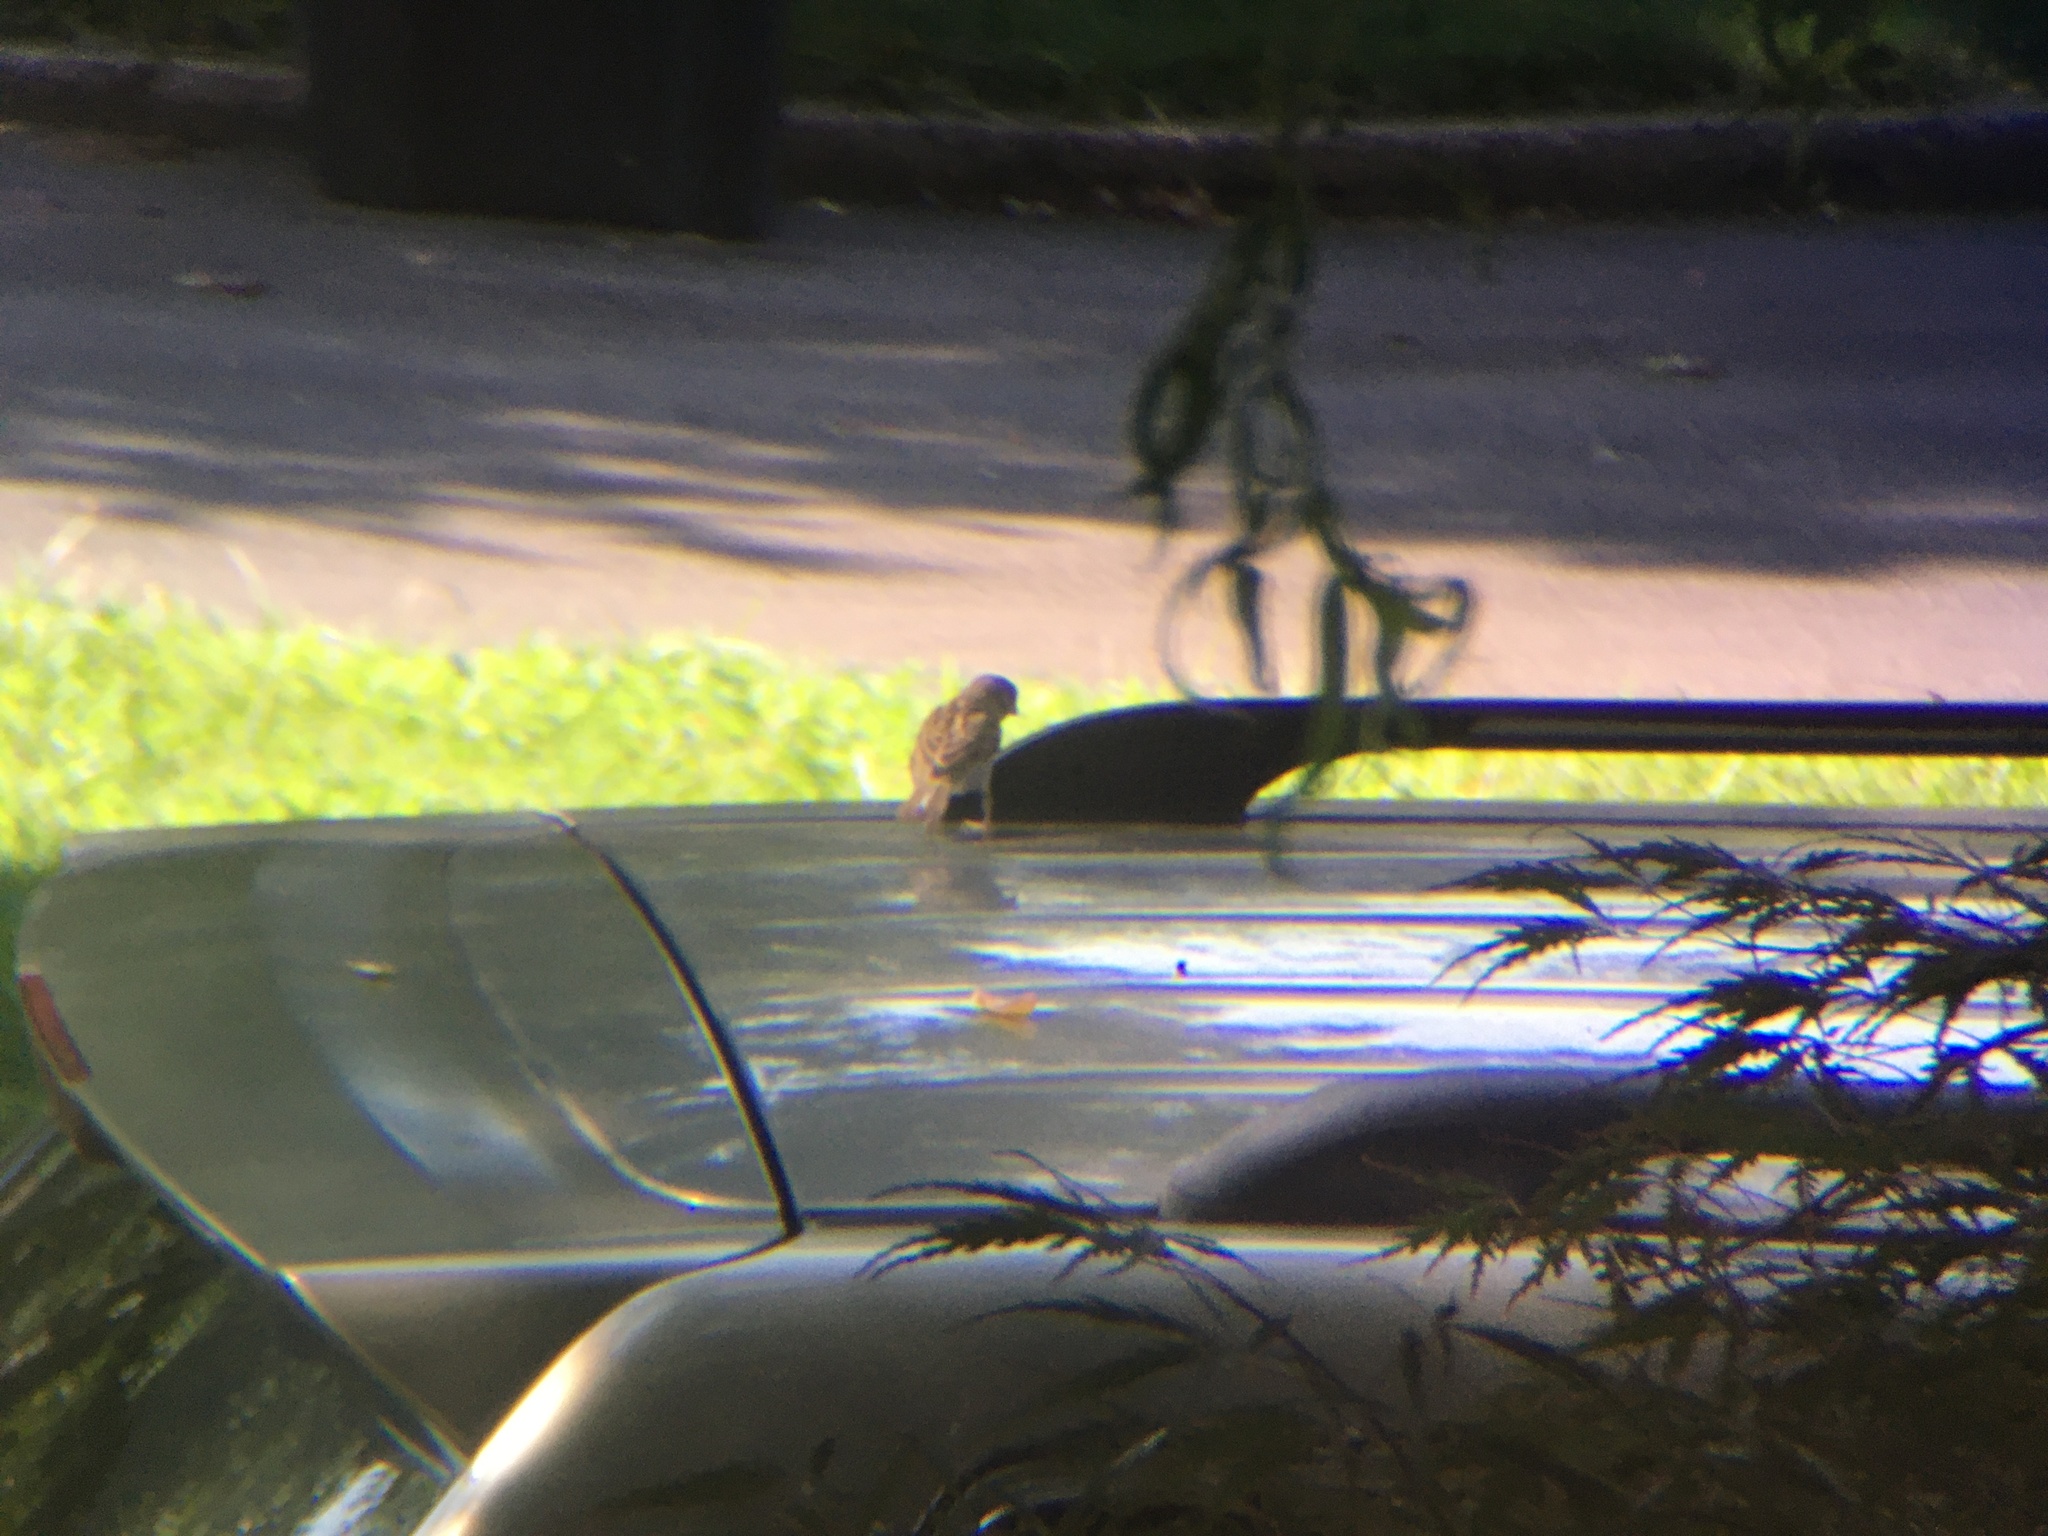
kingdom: Animalia
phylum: Chordata
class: Aves
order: Passeriformes
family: Passeridae
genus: Passer
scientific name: Passer domesticus
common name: House sparrow
